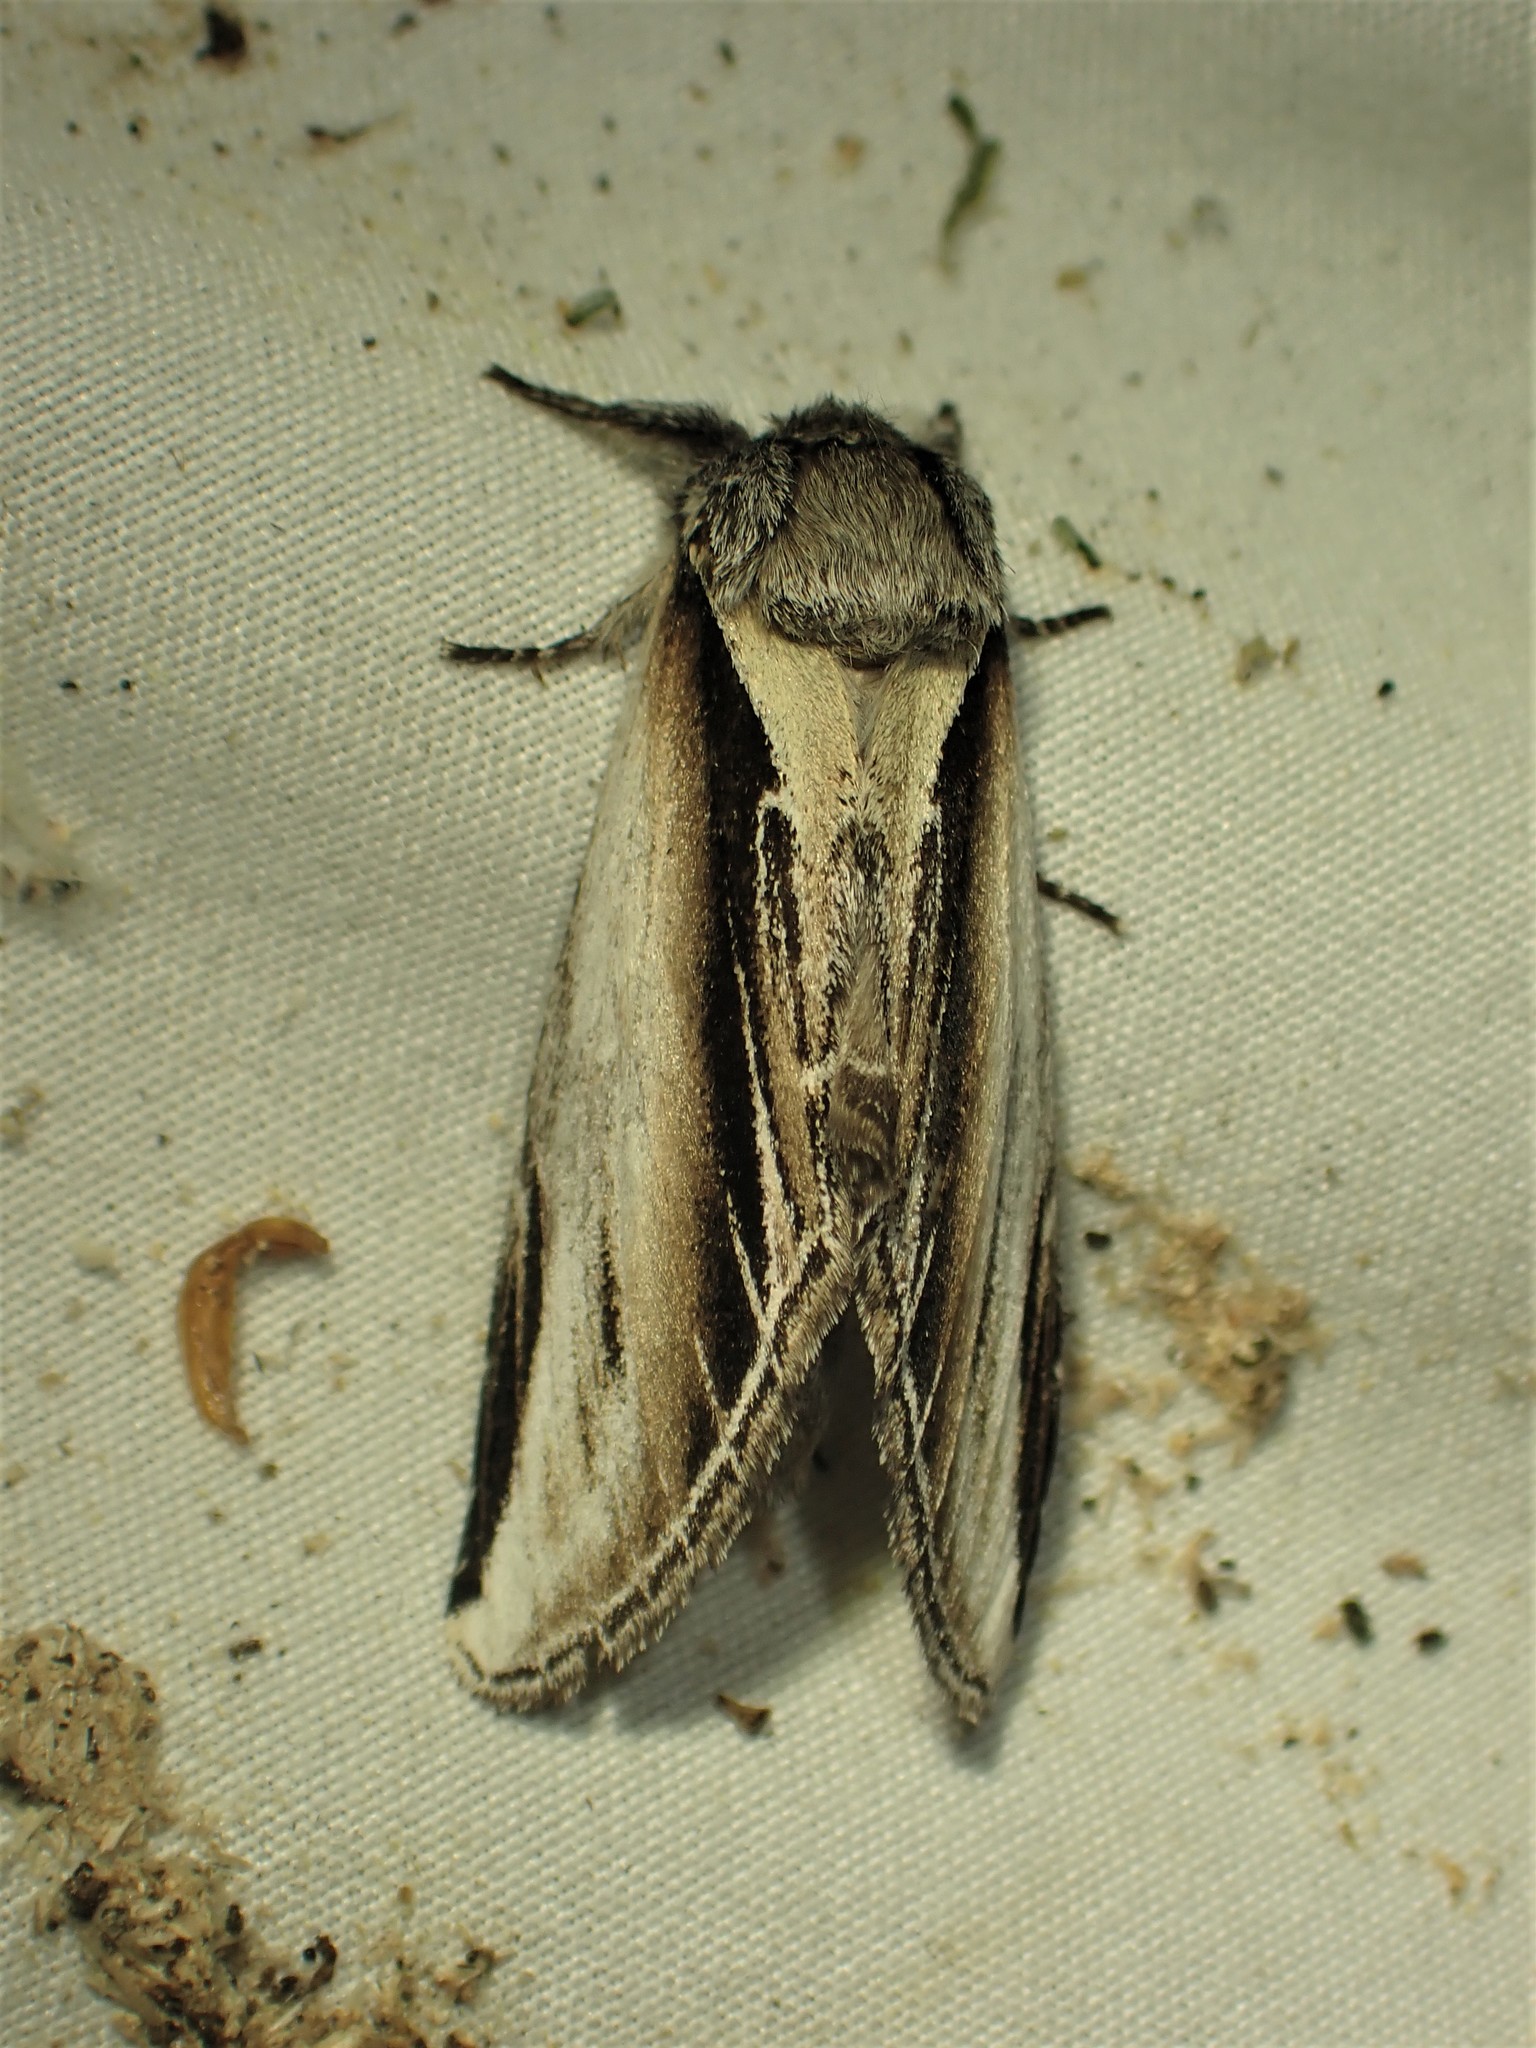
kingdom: Animalia
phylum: Arthropoda
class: Insecta
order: Lepidoptera
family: Notodontidae
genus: Pheosia
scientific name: Pheosia rimosa
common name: Black-rimmed prominent
